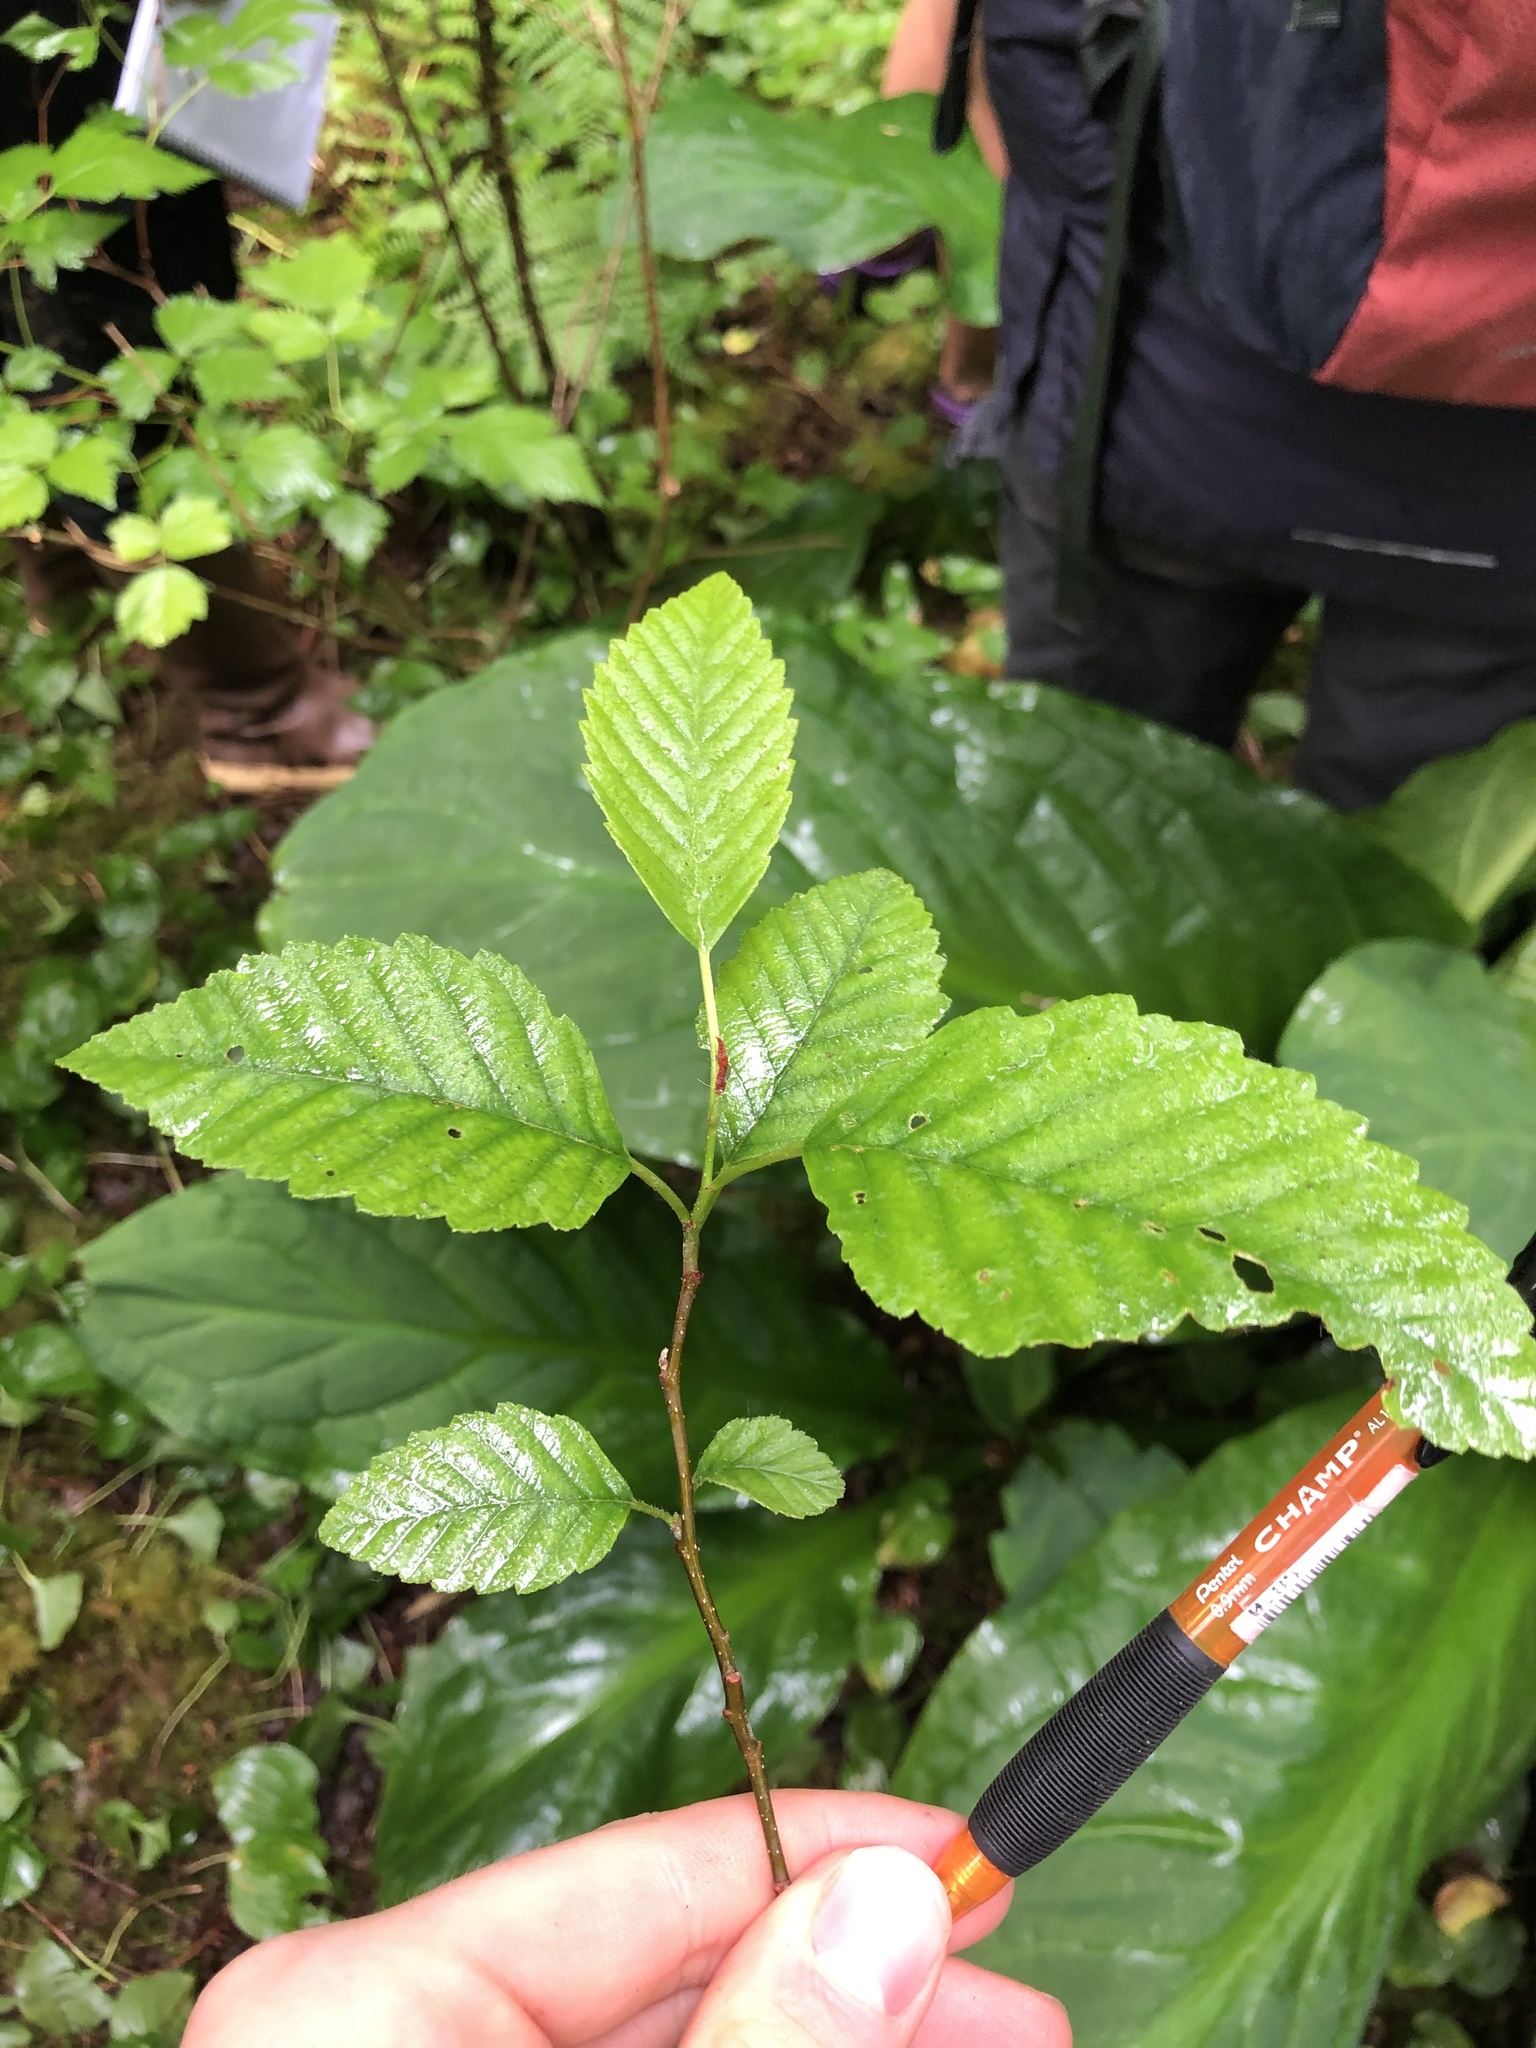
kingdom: Plantae
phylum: Tracheophyta
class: Magnoliopsida
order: Fagales
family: Betulaceae
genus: Alnus
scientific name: Alnus rubra
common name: Red alder
